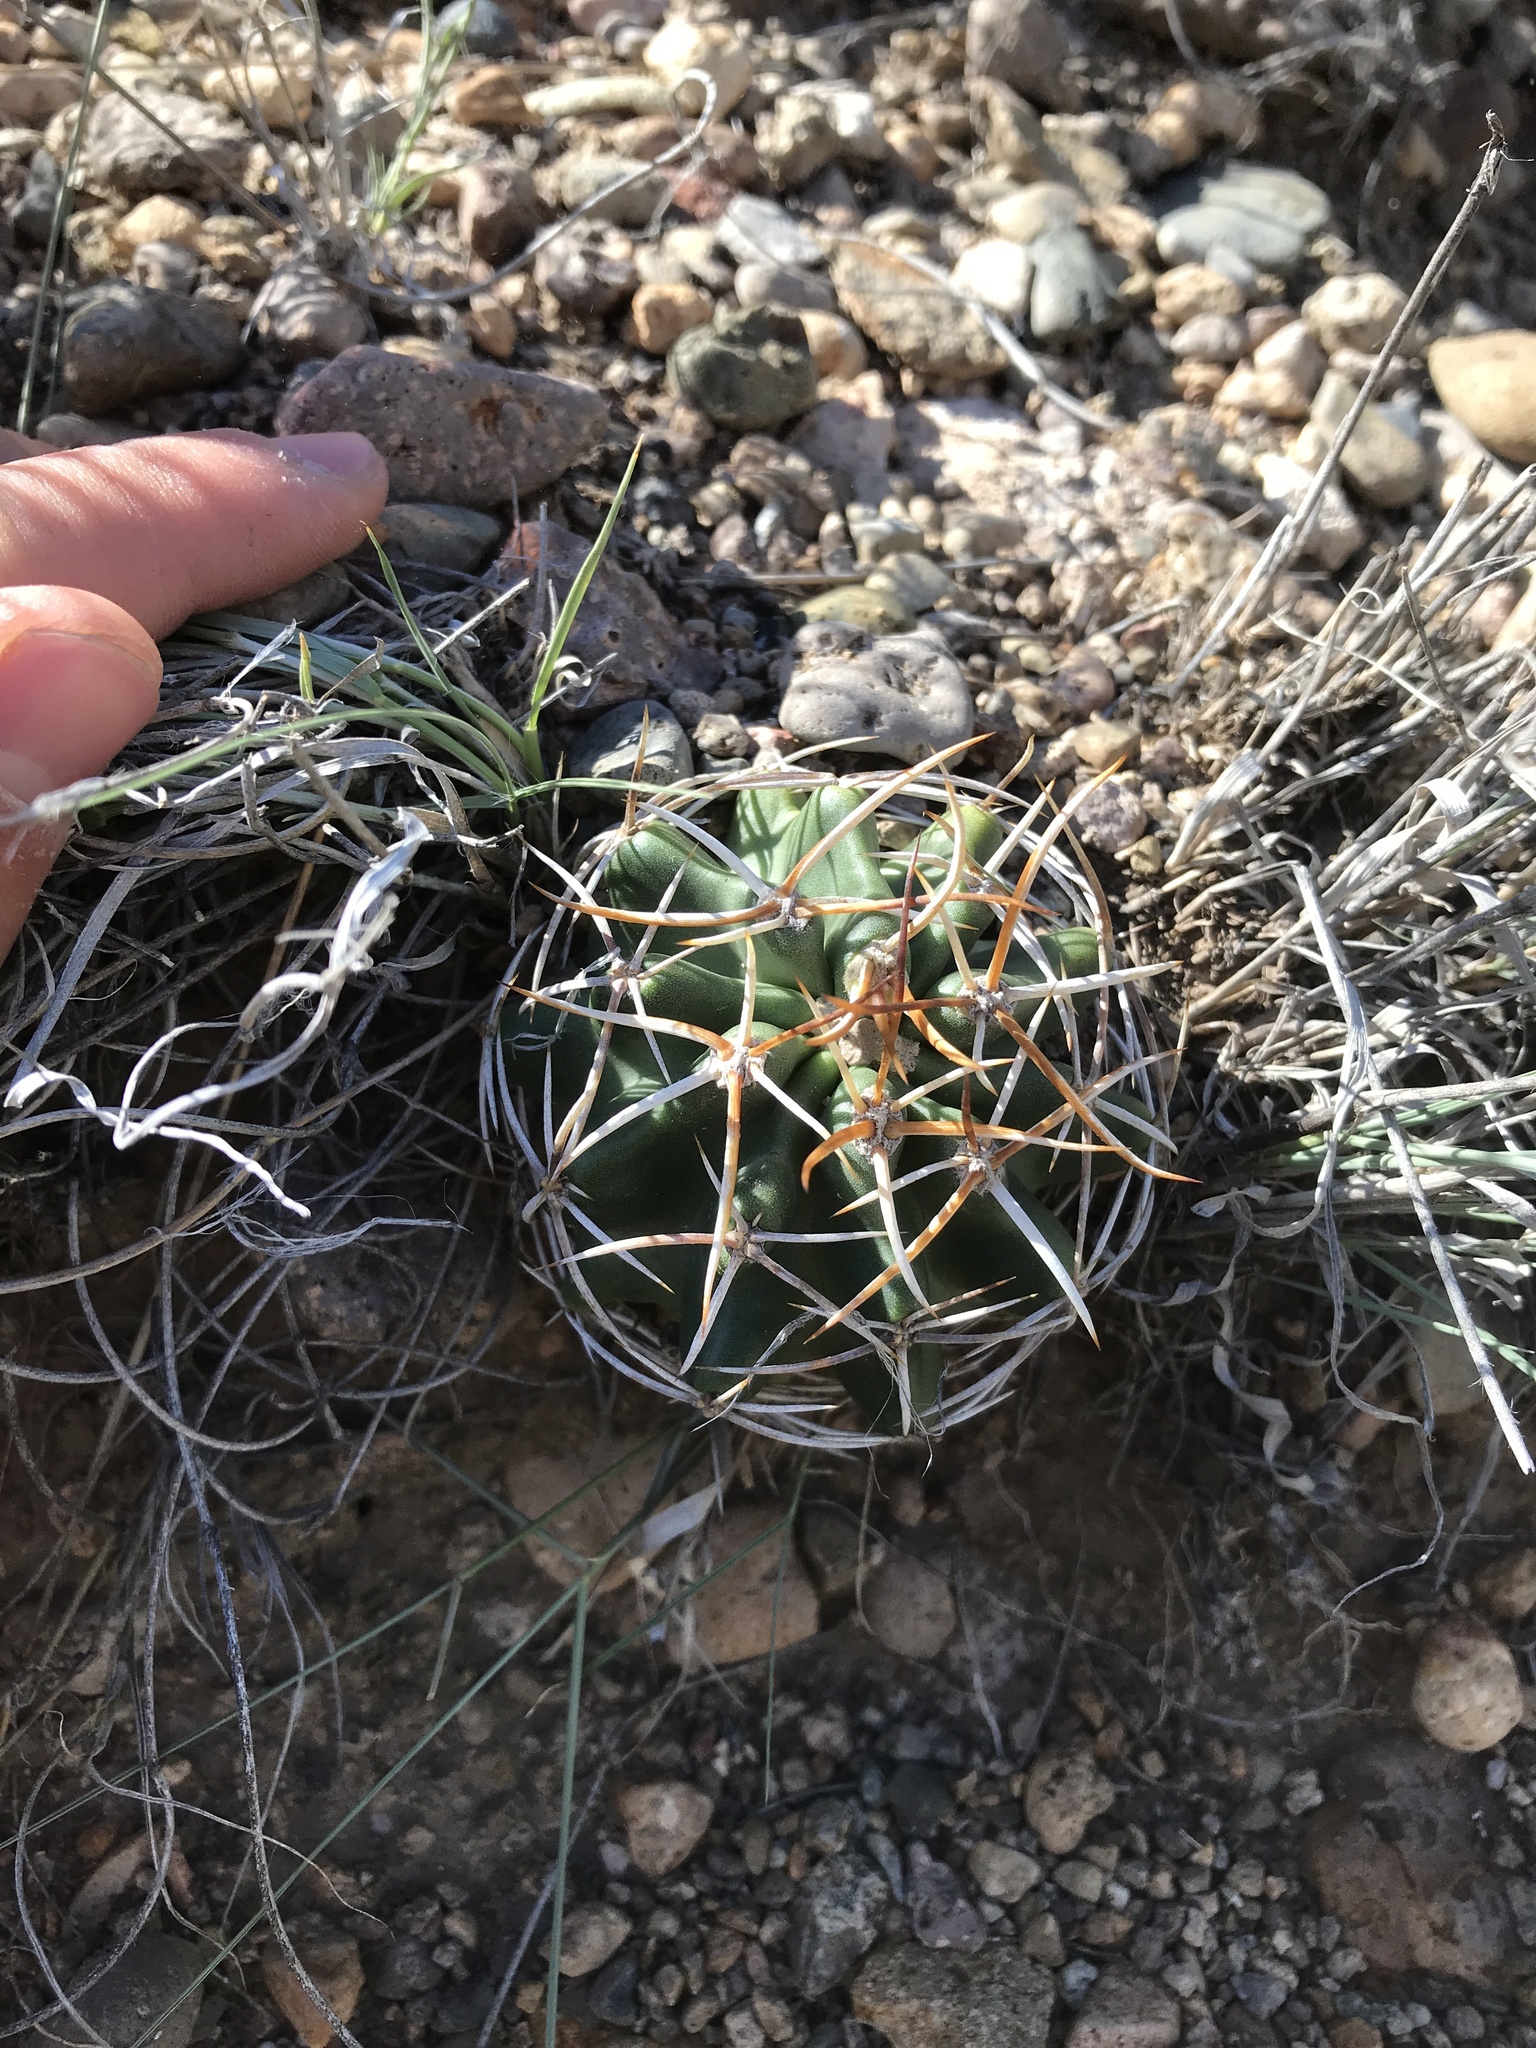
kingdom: Plantae
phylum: Tracheophyta
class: Magnoliopsida
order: Caryophyllales
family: Cactaceae
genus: Echinocereus
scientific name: Echinocereus fendleri
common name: Fendler's hedgehog cactus
